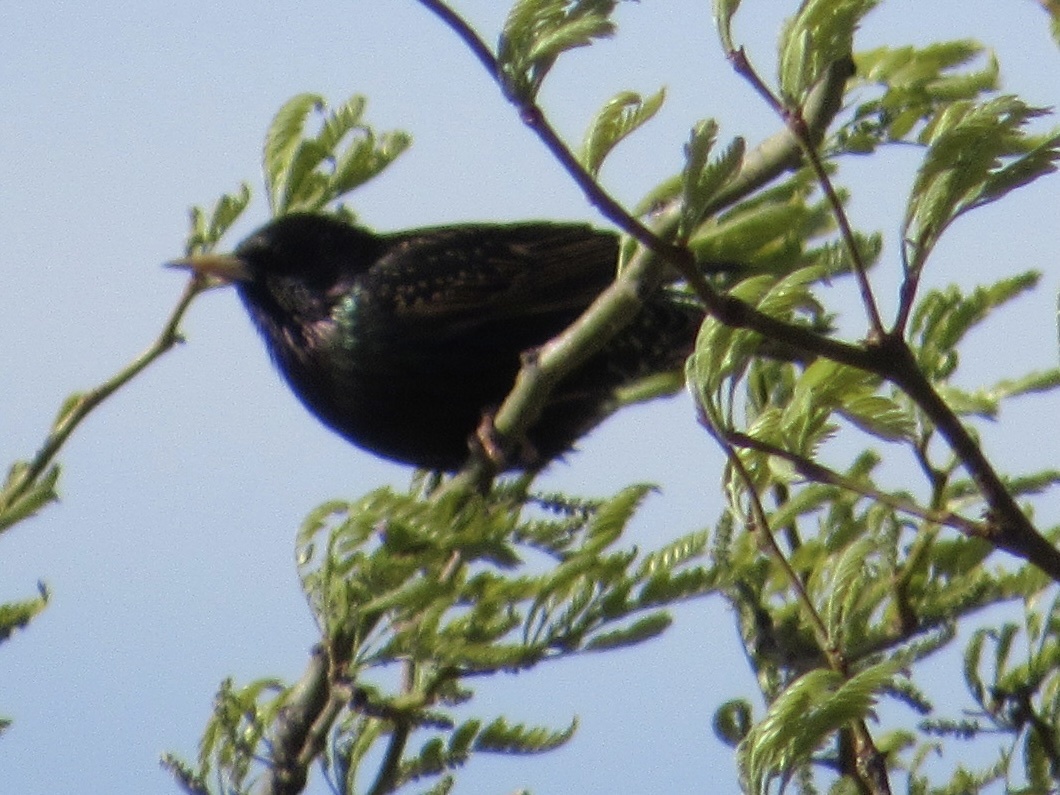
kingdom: Animalia
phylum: Chordata
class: Aves
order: Passeriformes
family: Sturnidae
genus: Sturnus
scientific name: Sturnus vulgaris
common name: Common starling
